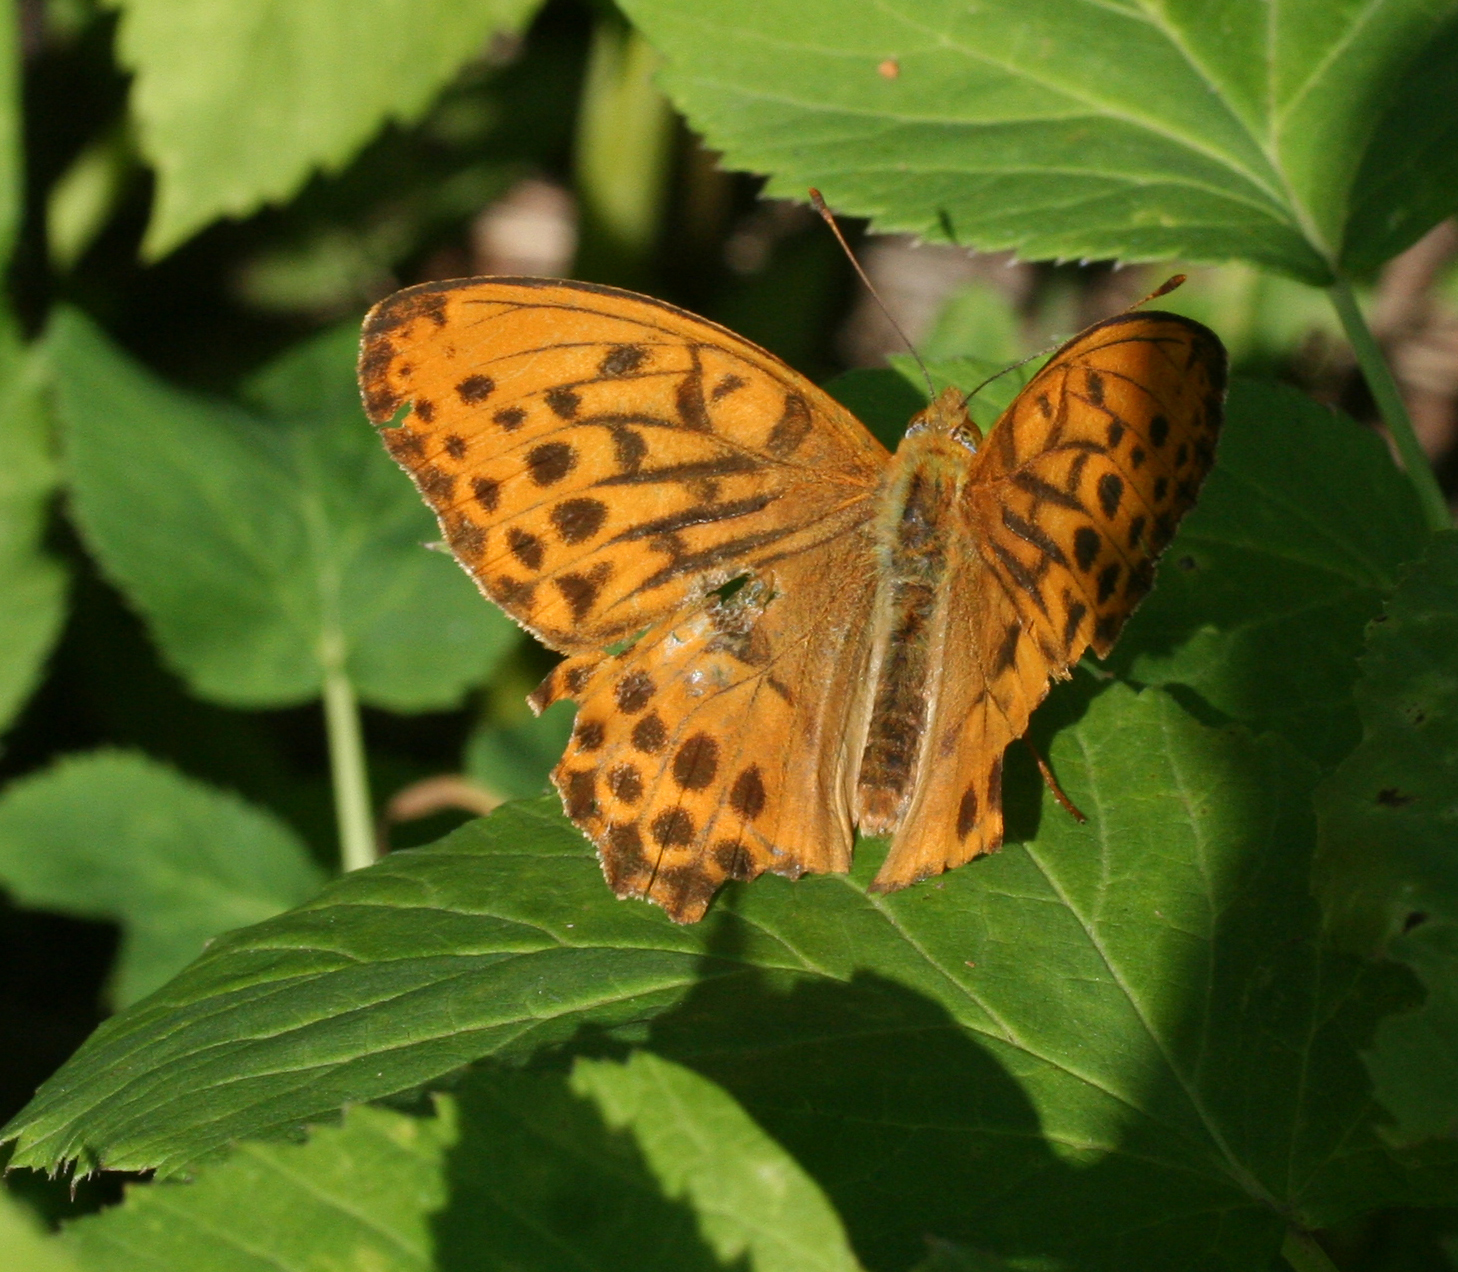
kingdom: Animalia
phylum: Arthropoda
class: Insecta
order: Lepidoptera
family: Nymphalidae
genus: Damora
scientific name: Damora sagana
